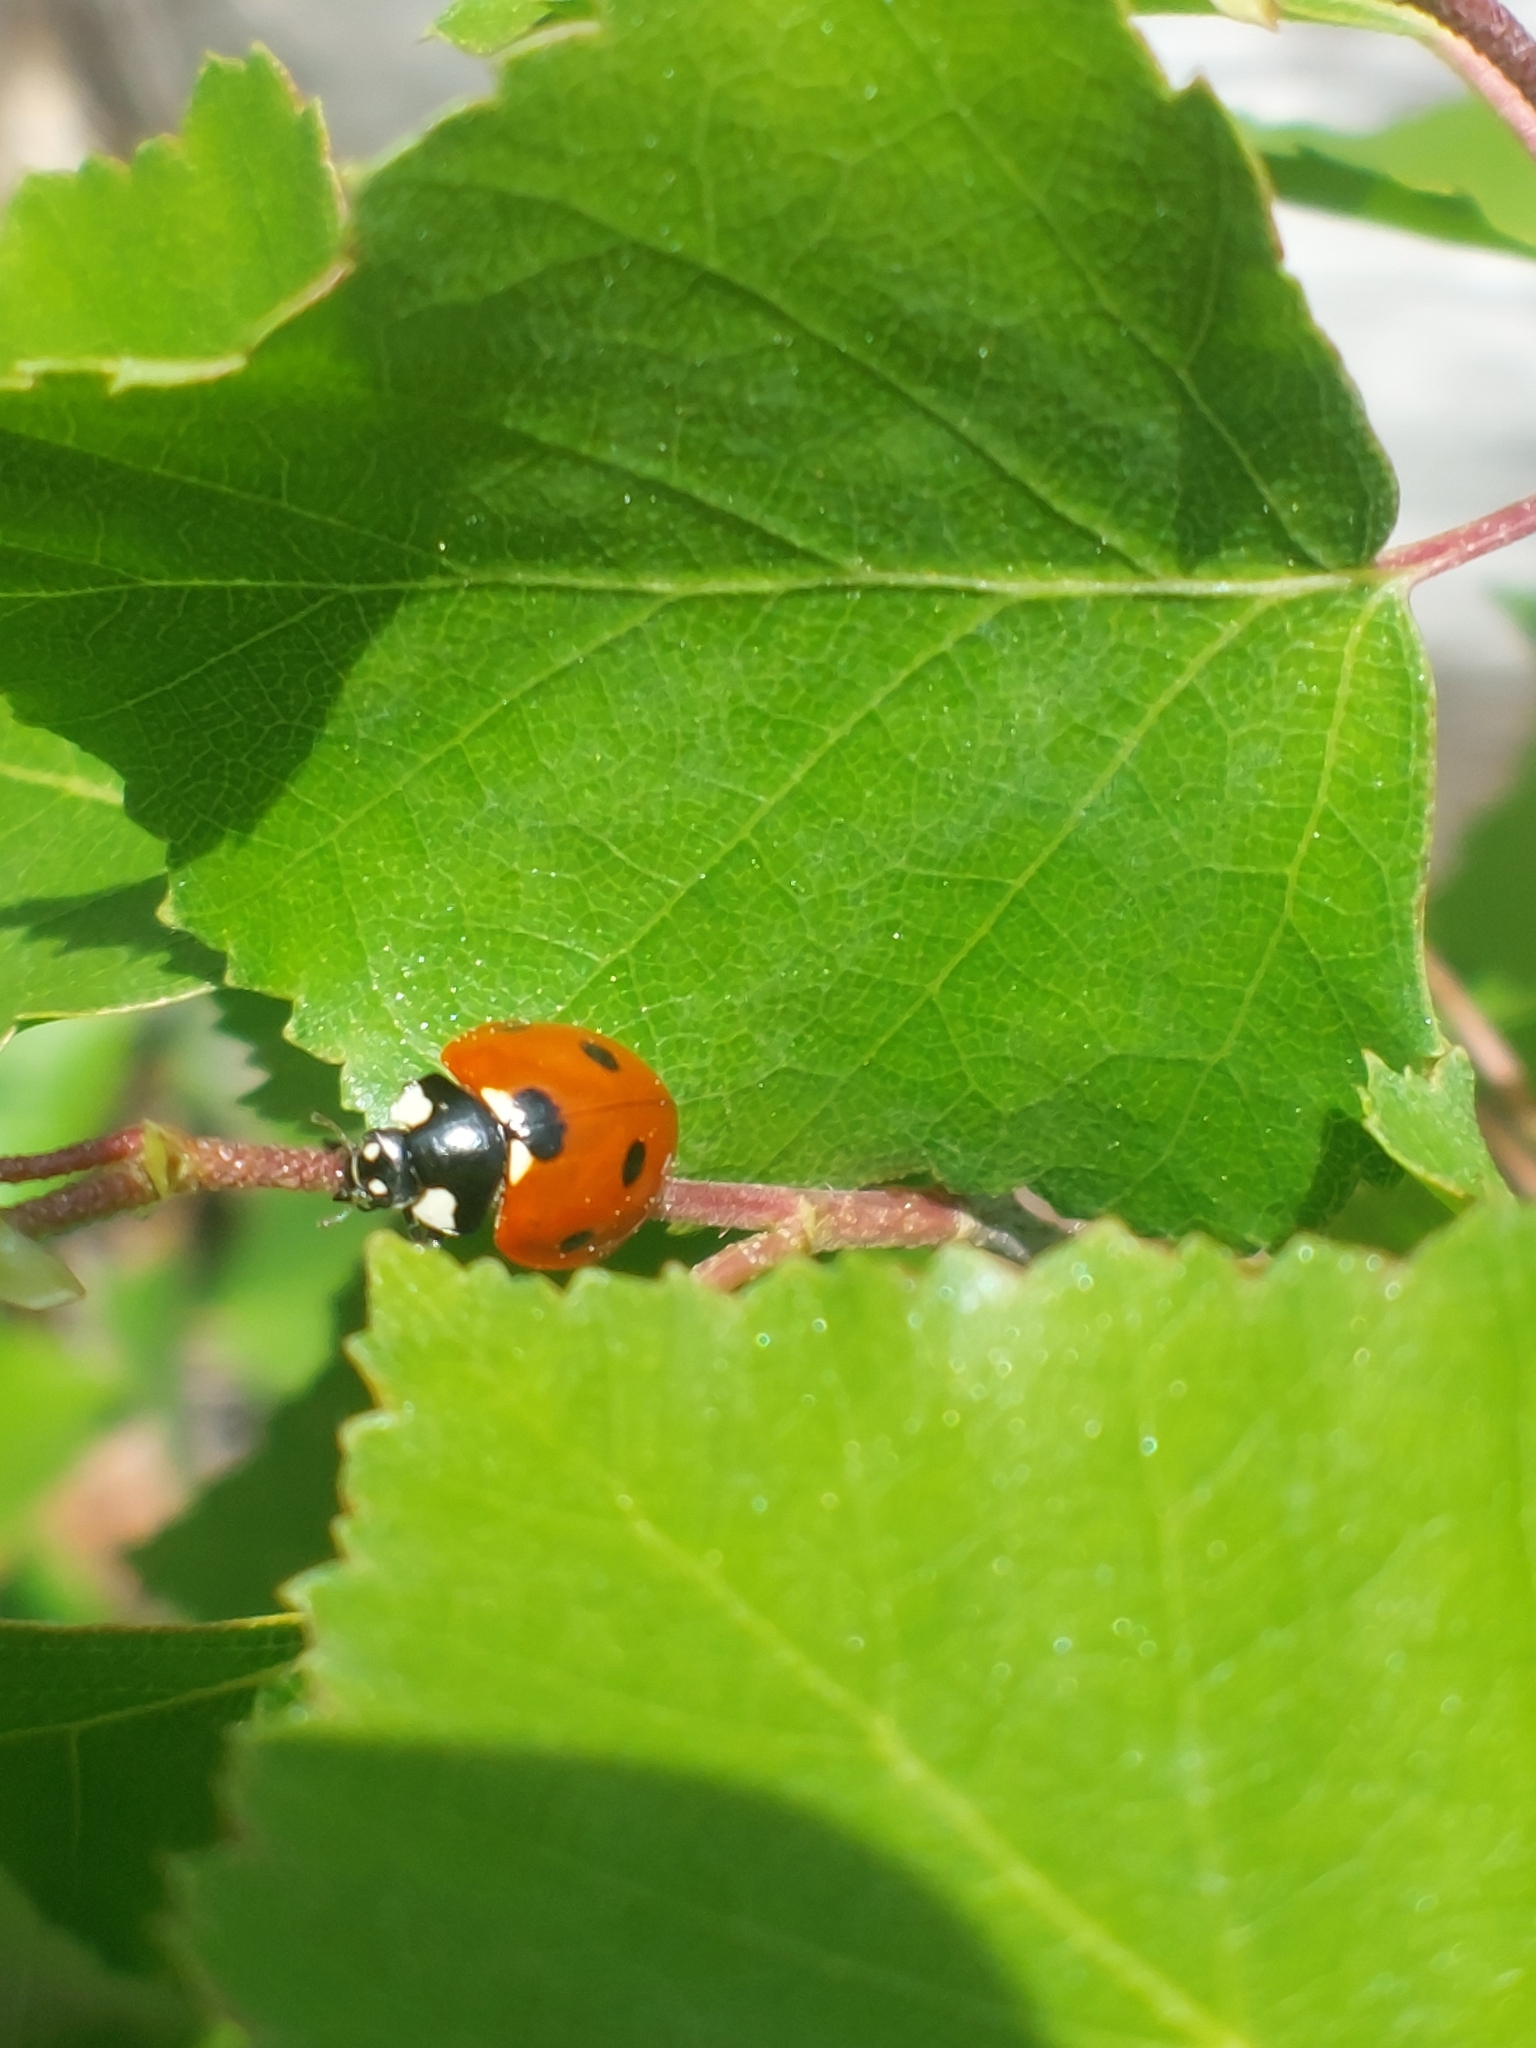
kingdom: Animalia
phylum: Arthropoda
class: Insecta
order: Coleoptera
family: Coccinellidae
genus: Coccinella
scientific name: Coccinella septempunctata
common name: Sevenspotted lady beetle
